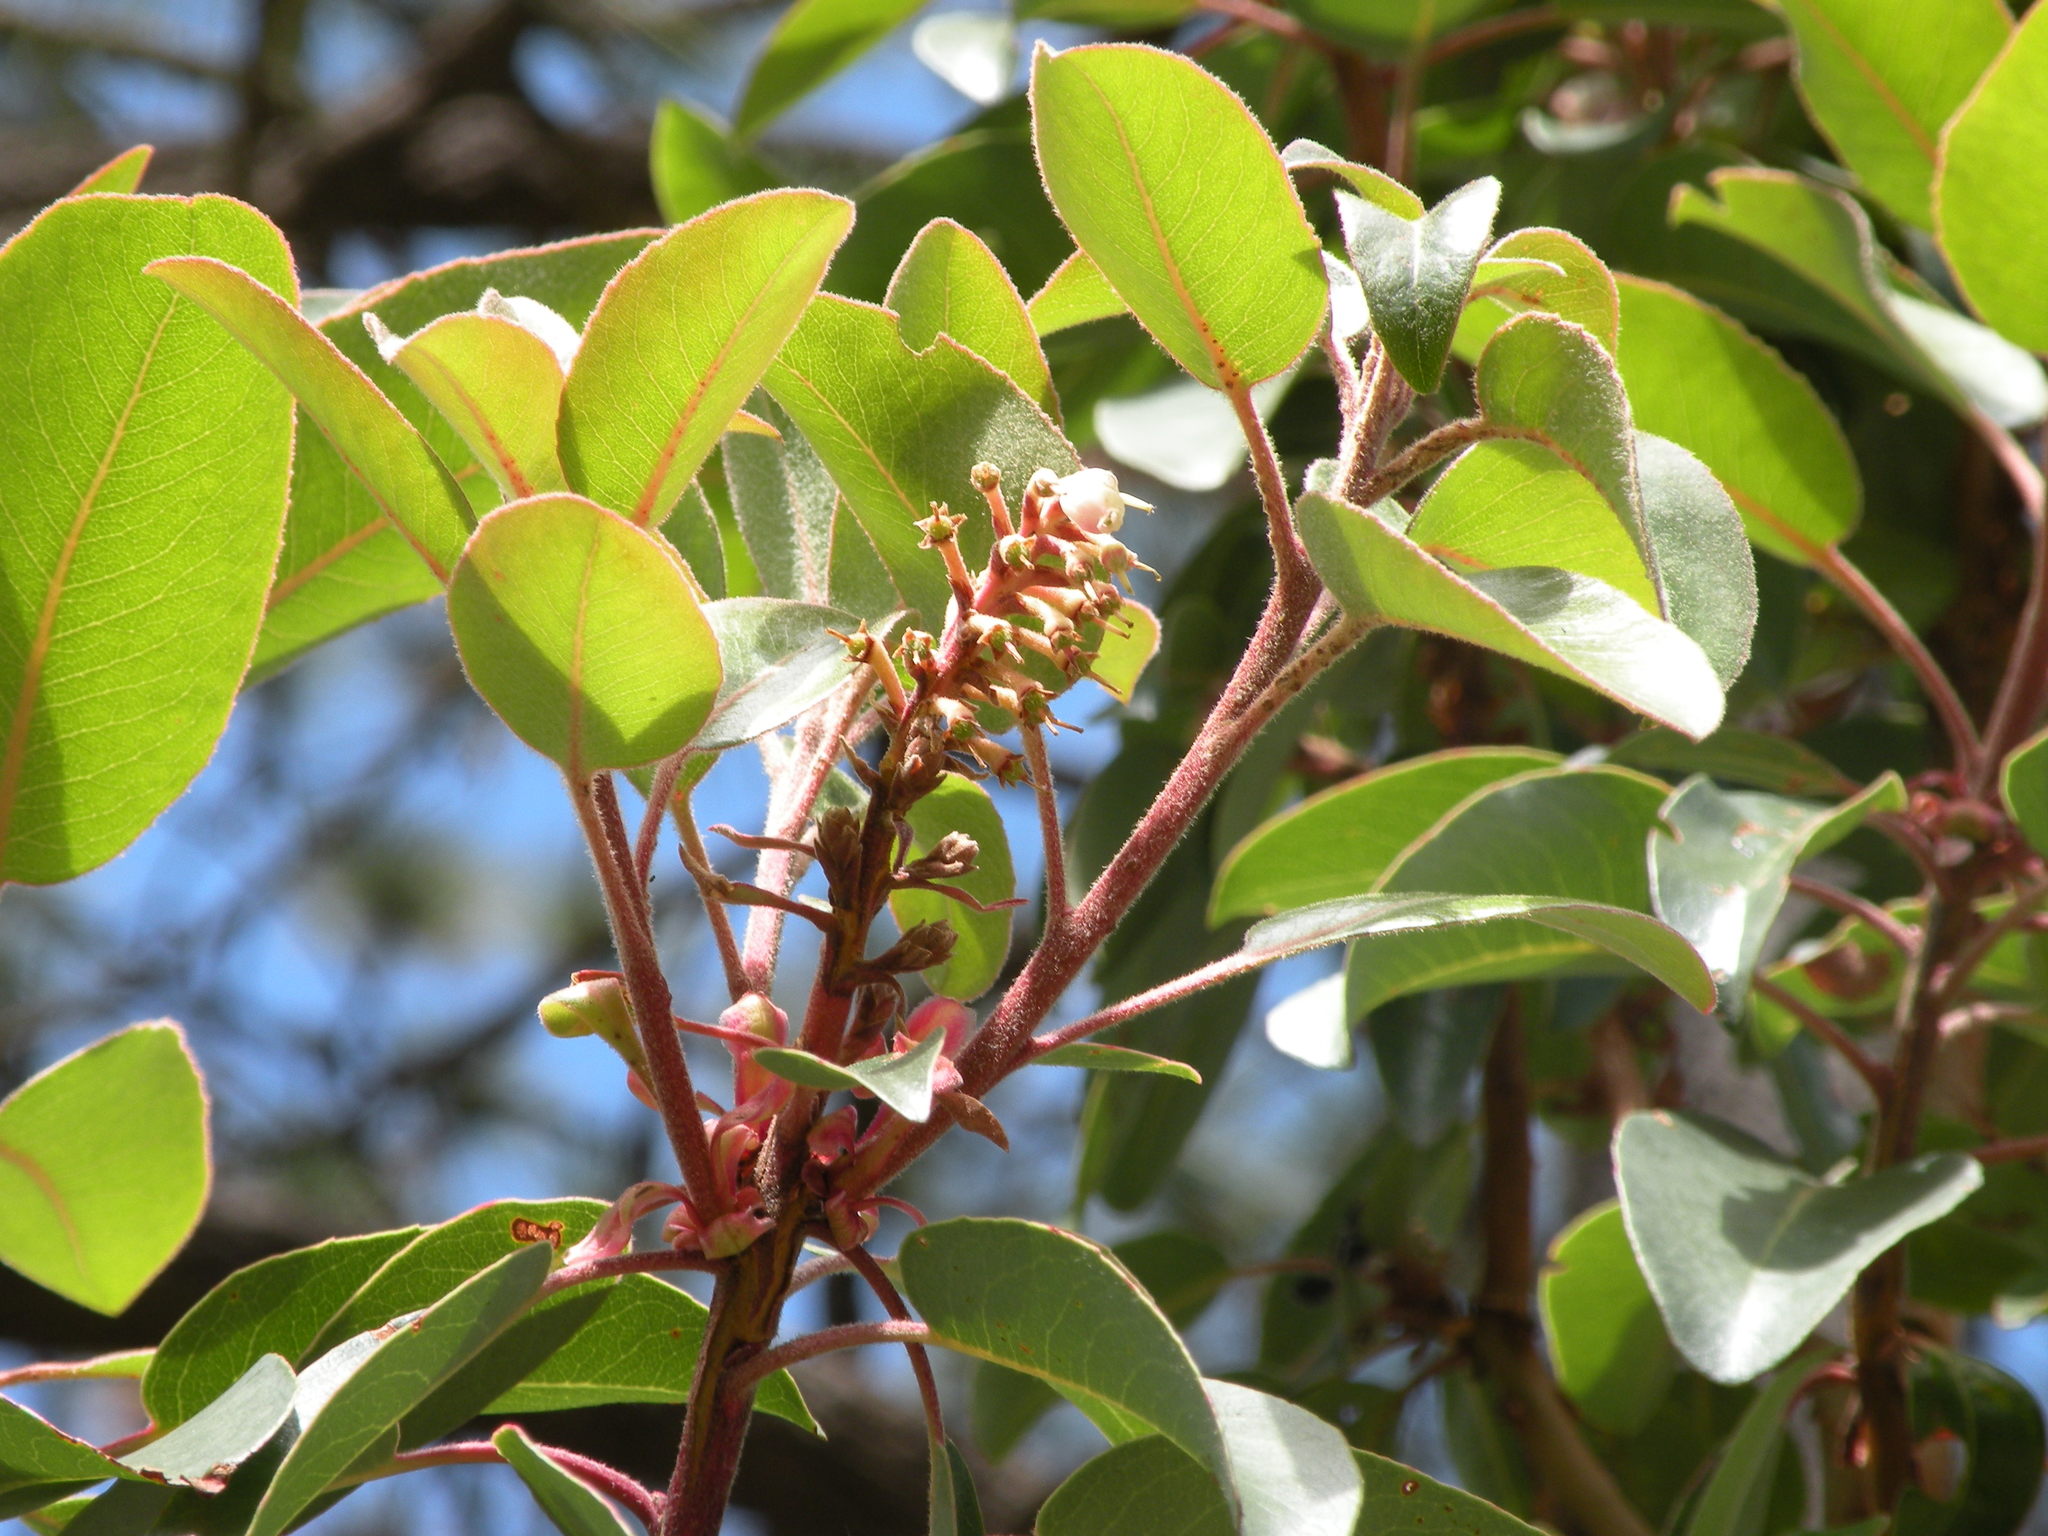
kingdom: Plantae
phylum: Tracheophyta
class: Magnoliopsida
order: Ericales
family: Ericaceae
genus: Arbutus
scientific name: Arbutus xalapensis
